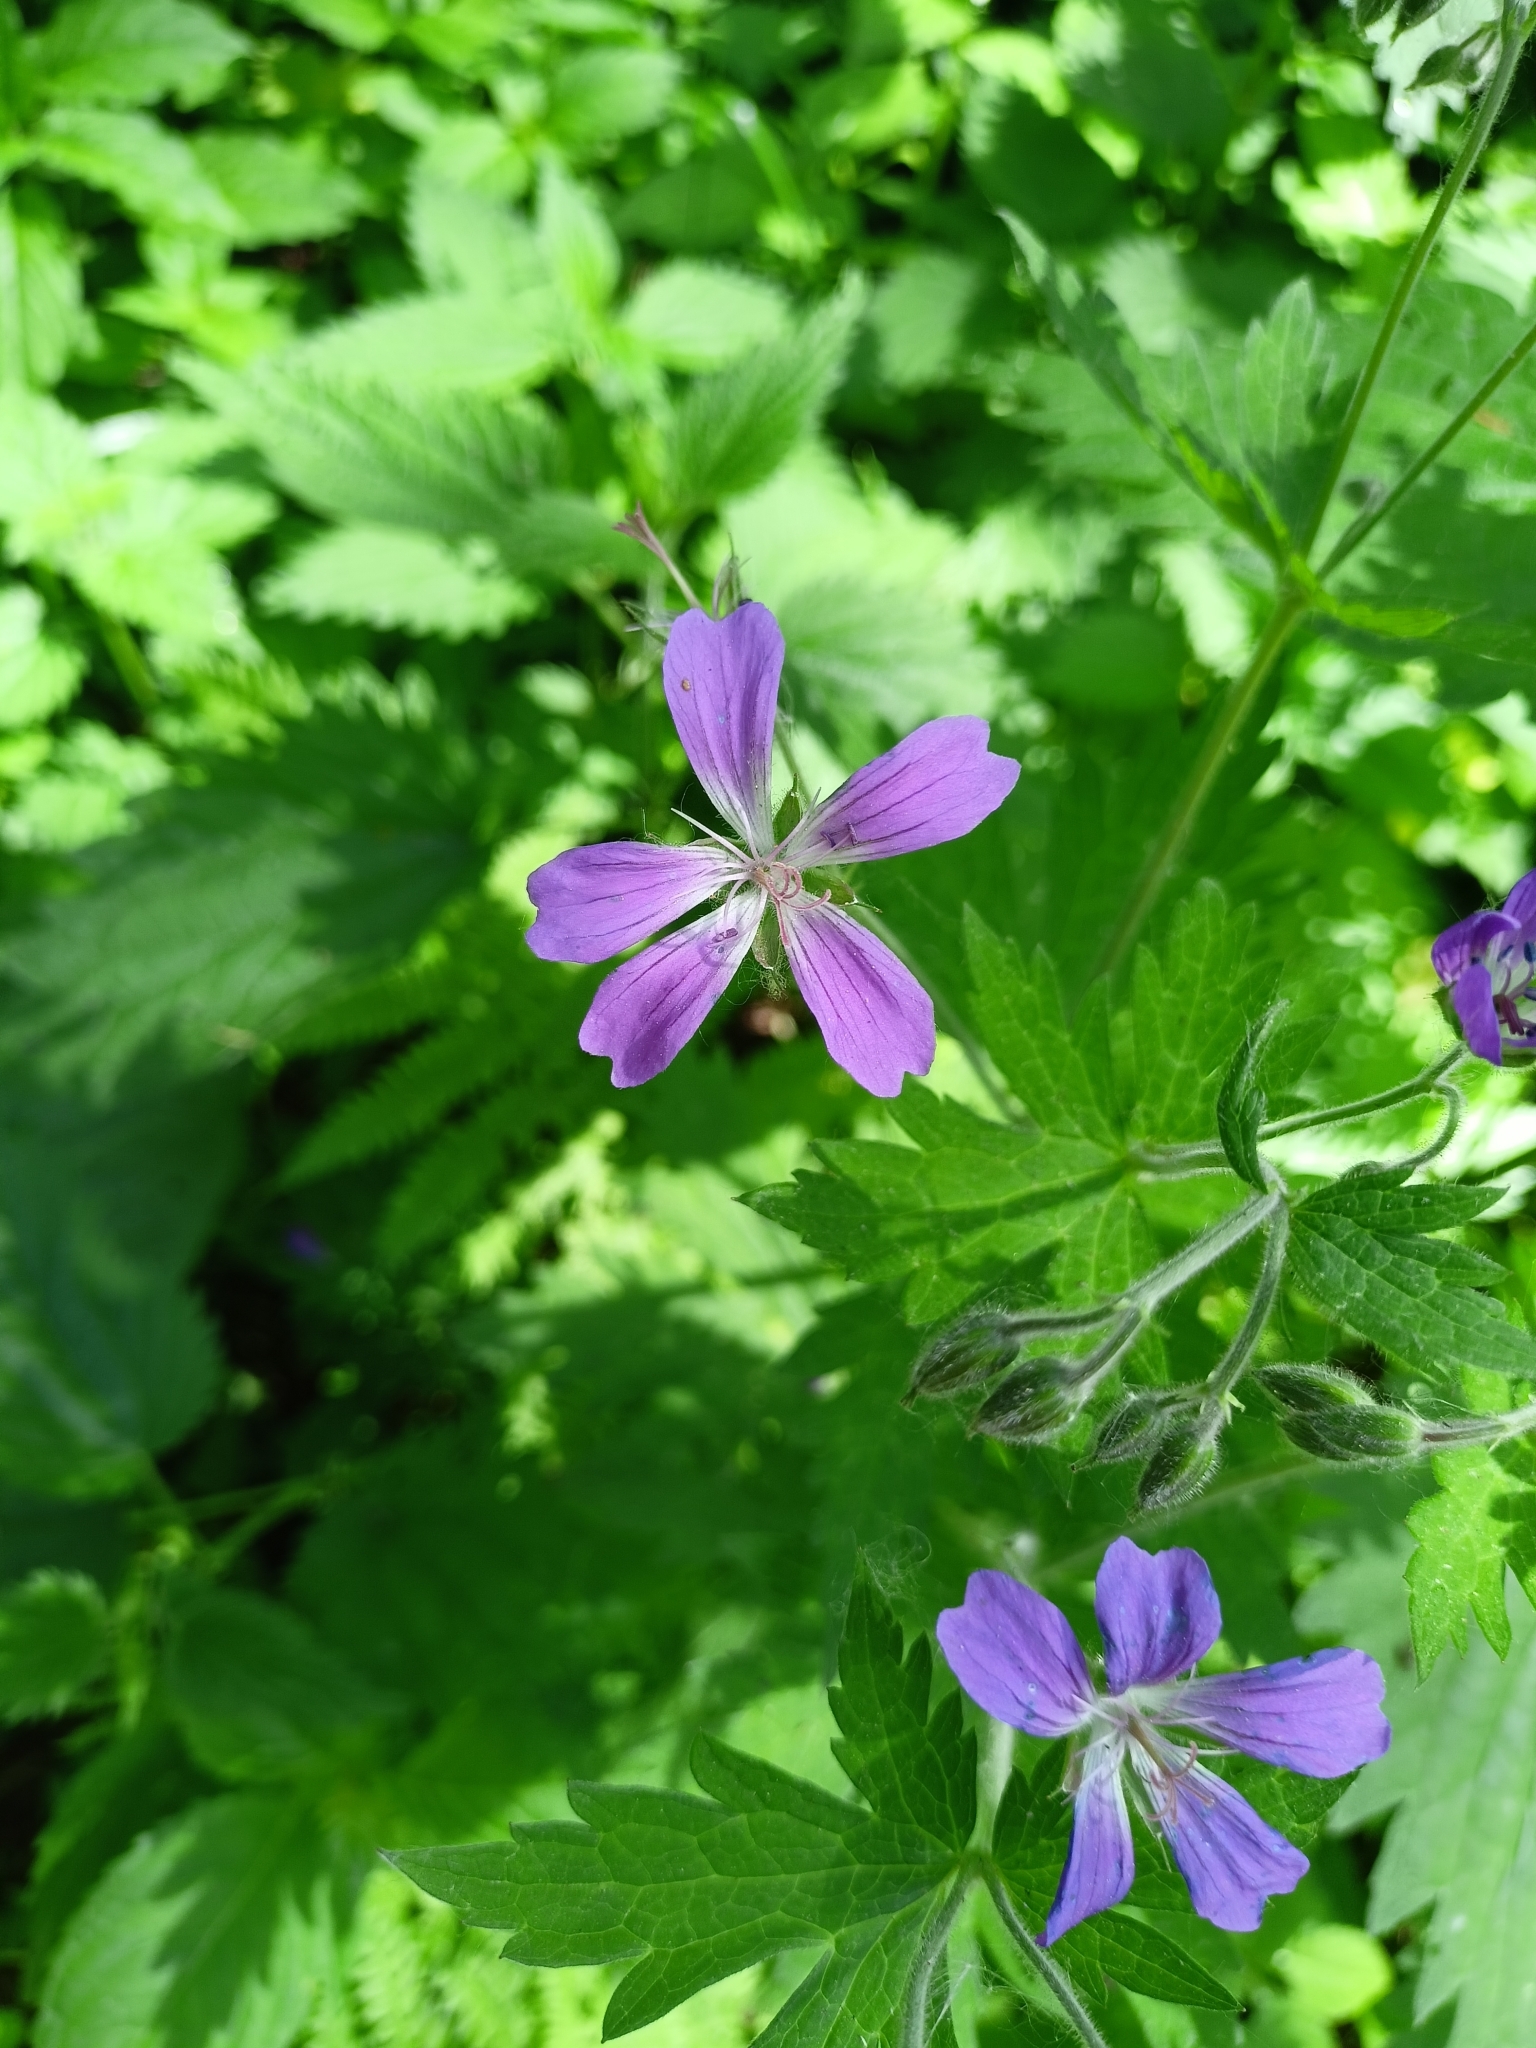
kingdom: Plantae
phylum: Tracheophyta
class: Magnoliopsida
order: Geraniales
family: Geraniaceae
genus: Geranium
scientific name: Geranium sylvaticum
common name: Wood crane's-bill
